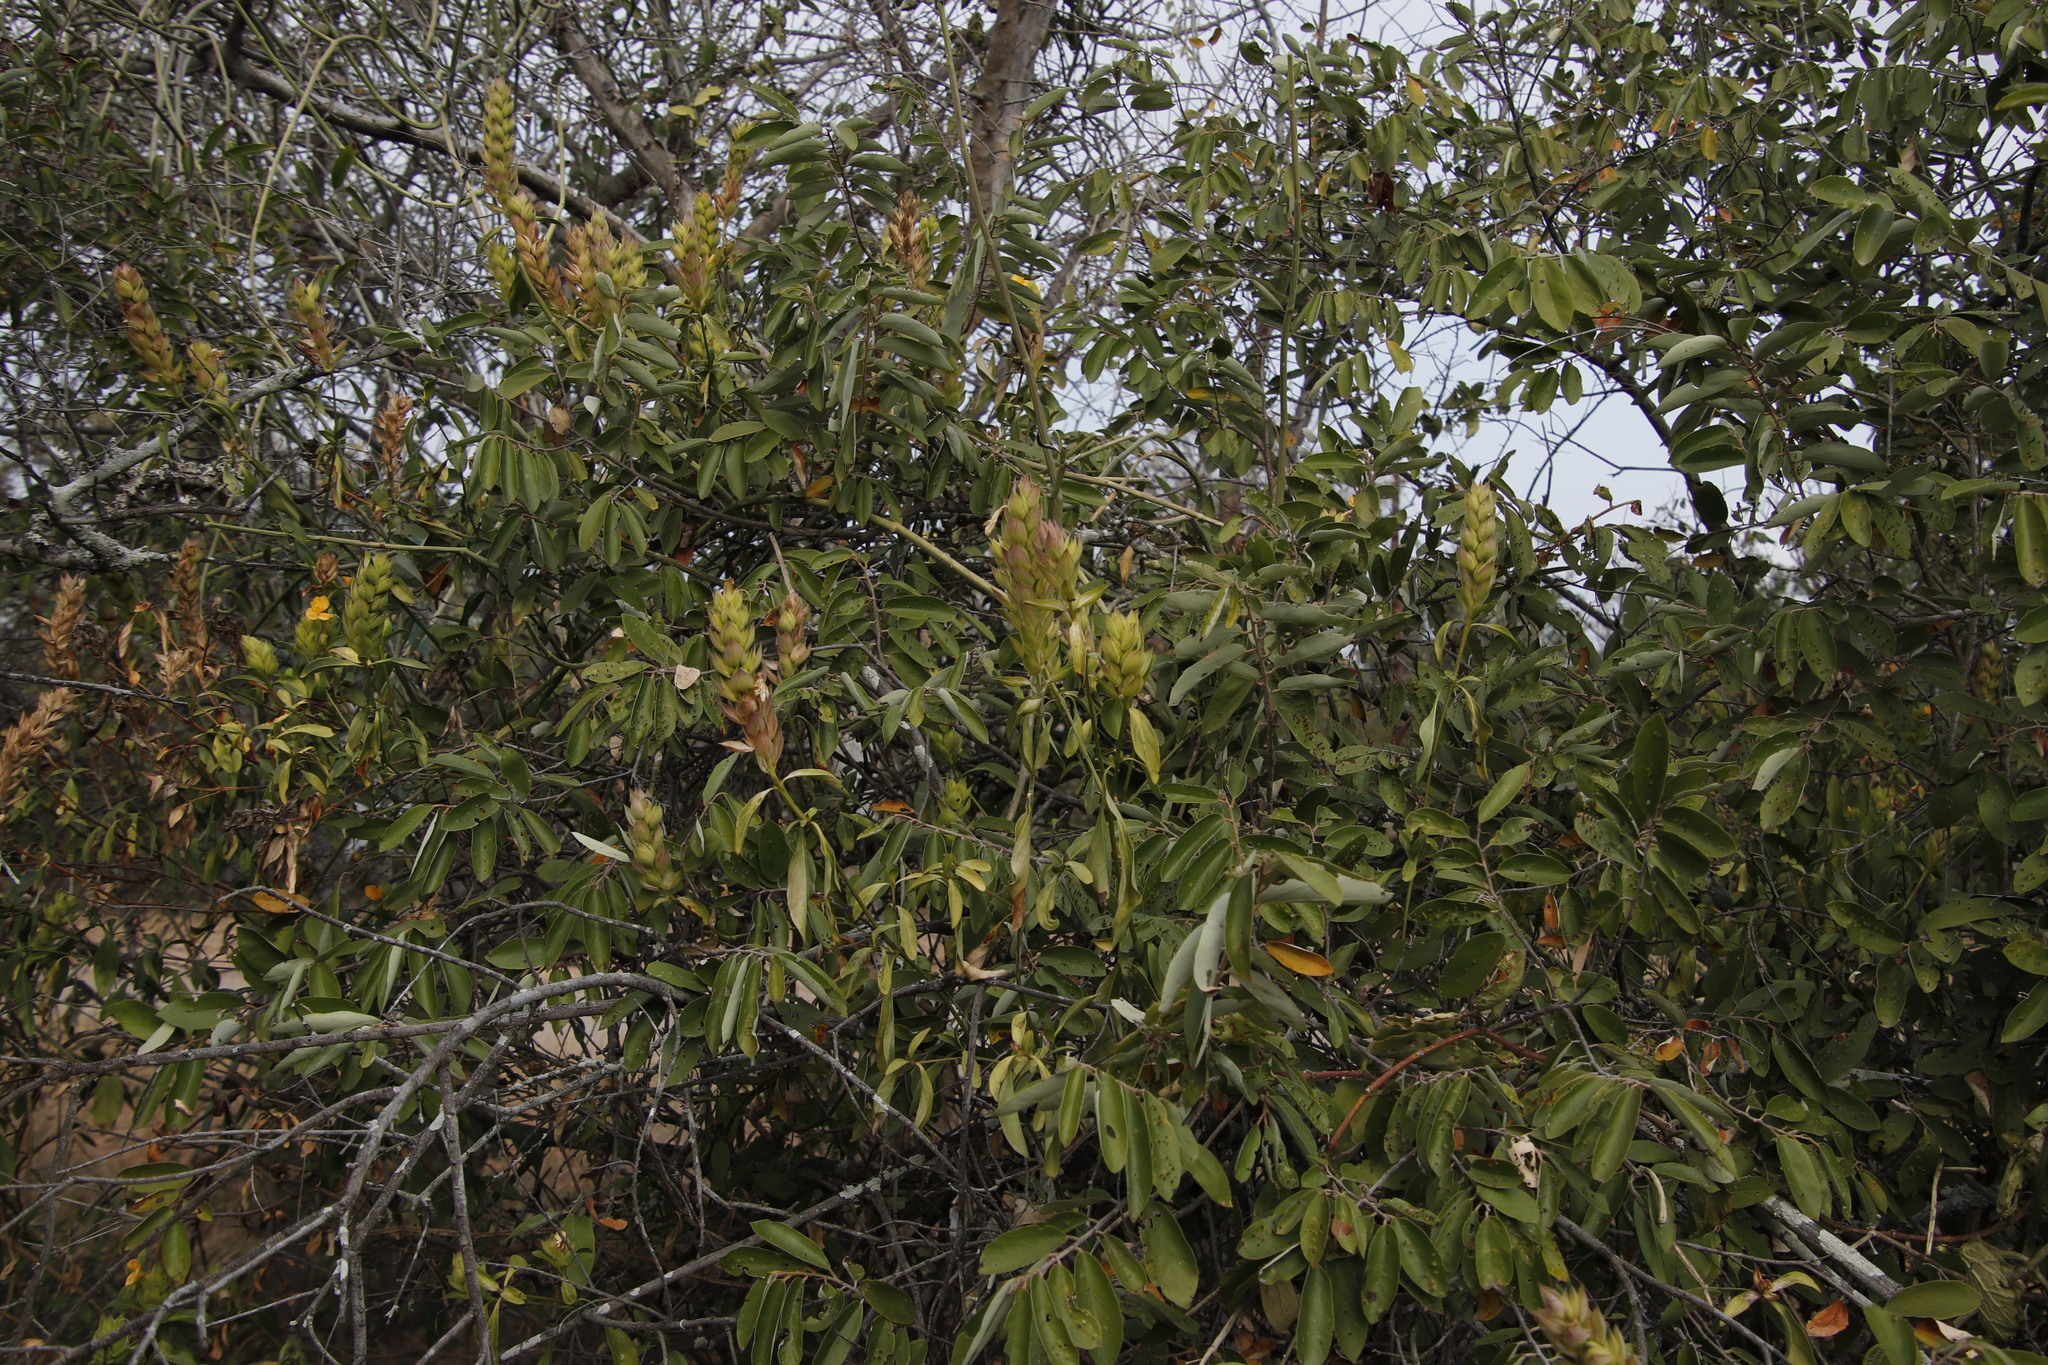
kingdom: Plantae
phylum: Tracheophyta
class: Magnoliopsida
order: Lamiales
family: Acanthaceae
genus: Barleria
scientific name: Barleria crossandriformis
